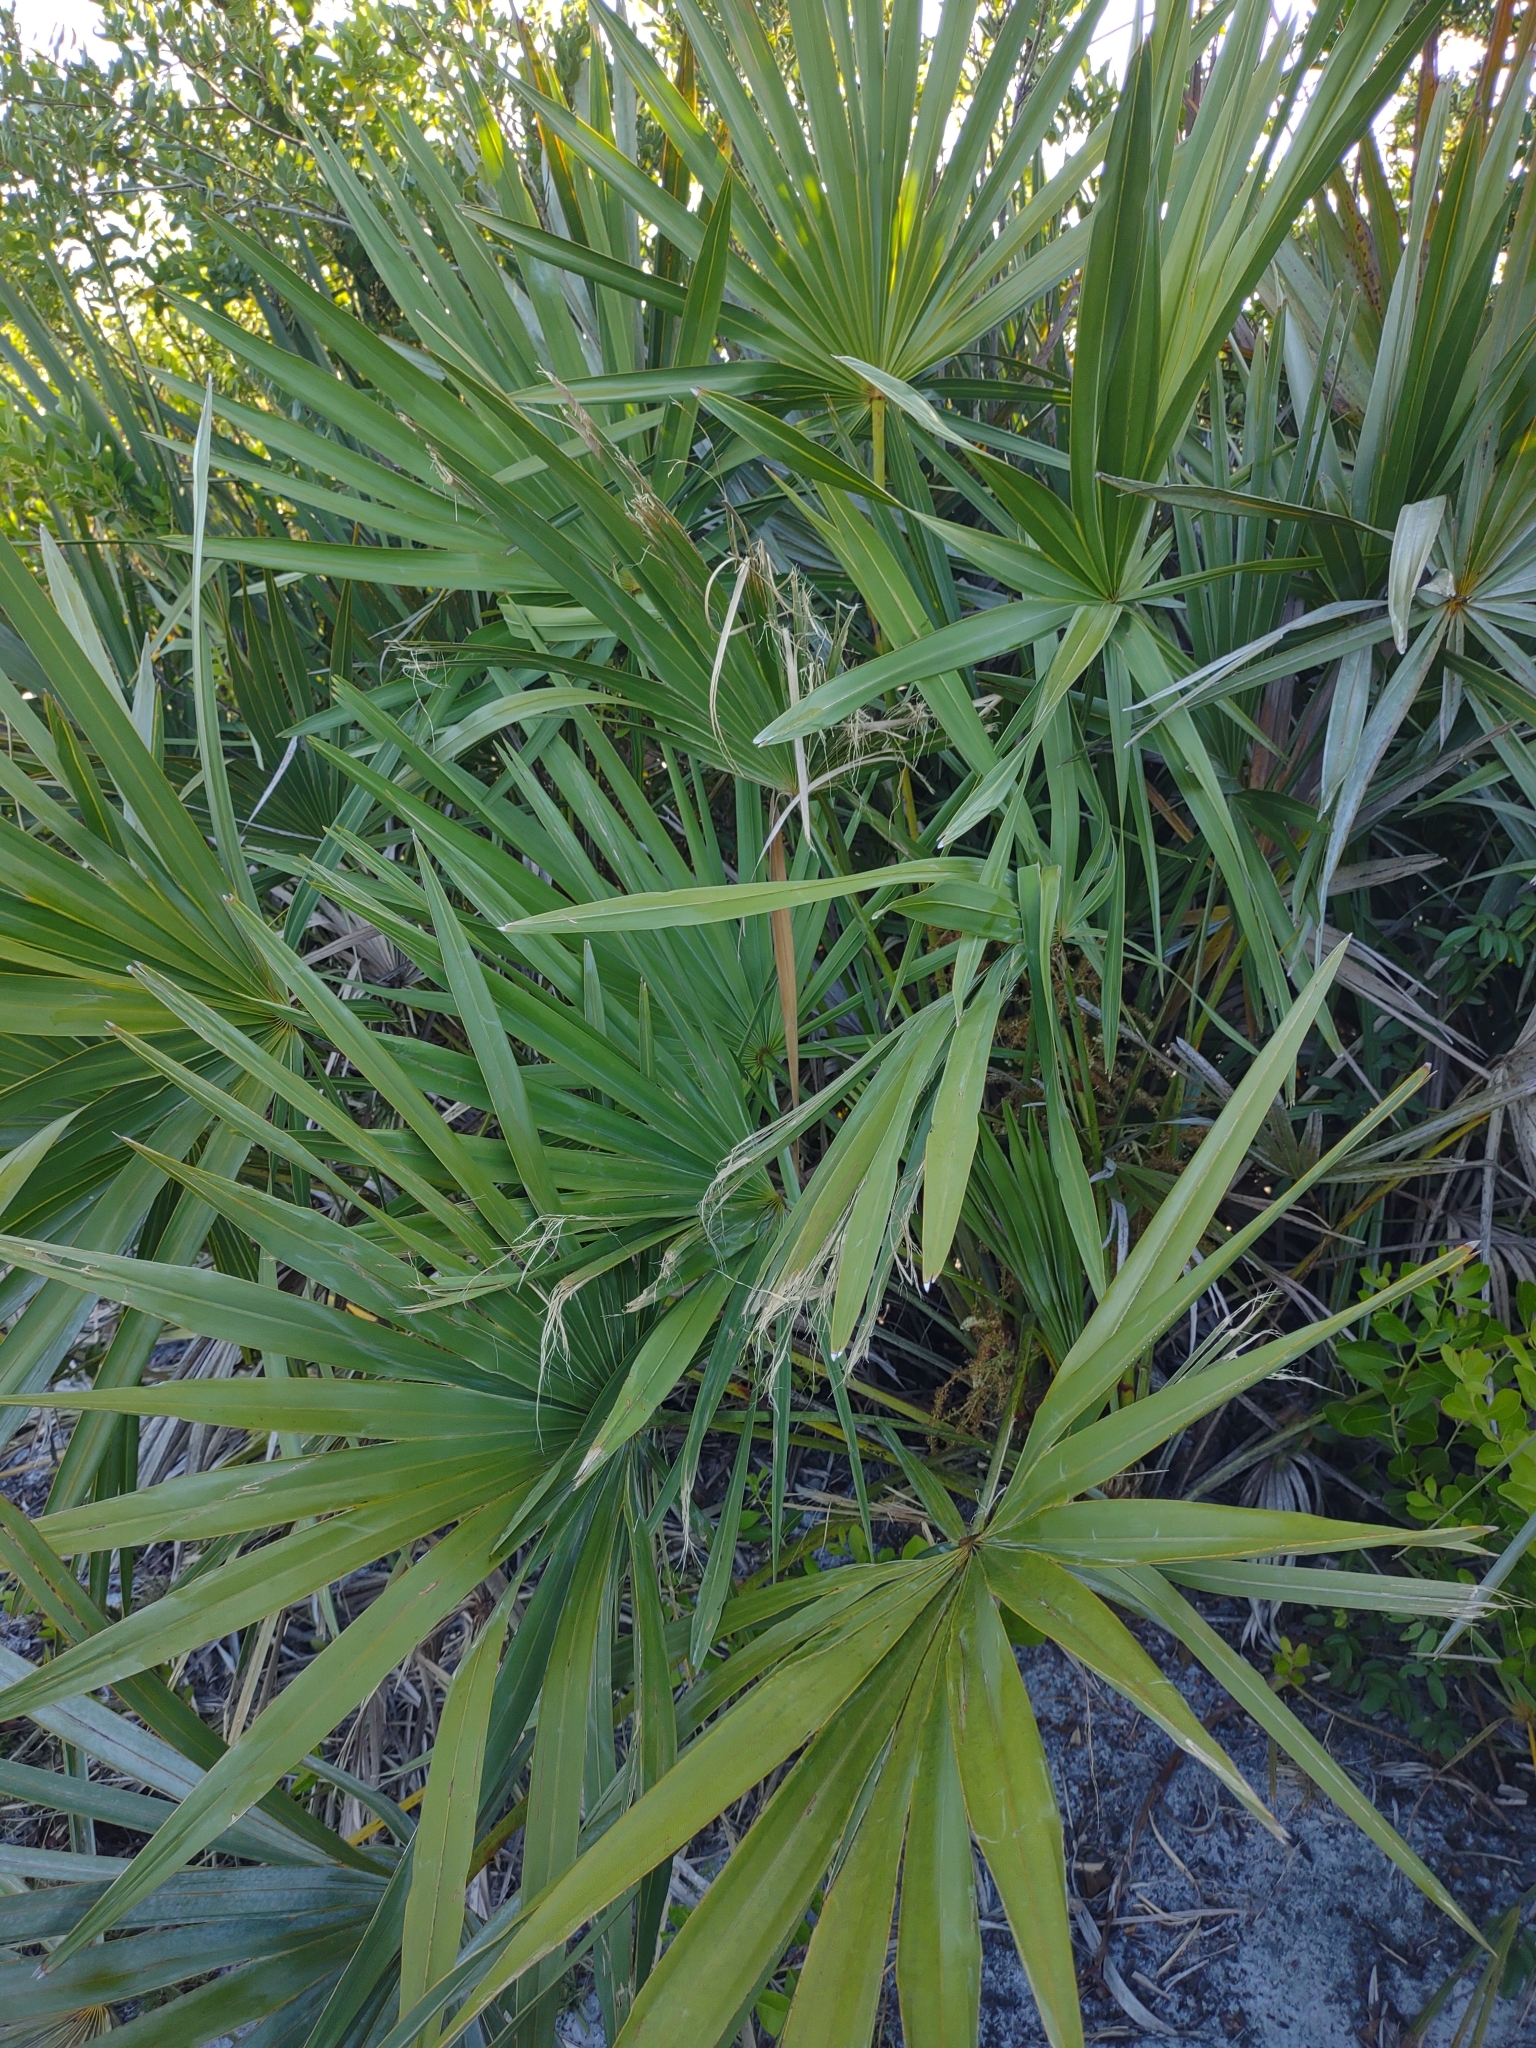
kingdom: Plantae
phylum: Tracheophyta
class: Liliopsida
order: Arecales
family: Arecaceae
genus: Serenoa
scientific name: Serenoa repens
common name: Saw-palmetto
